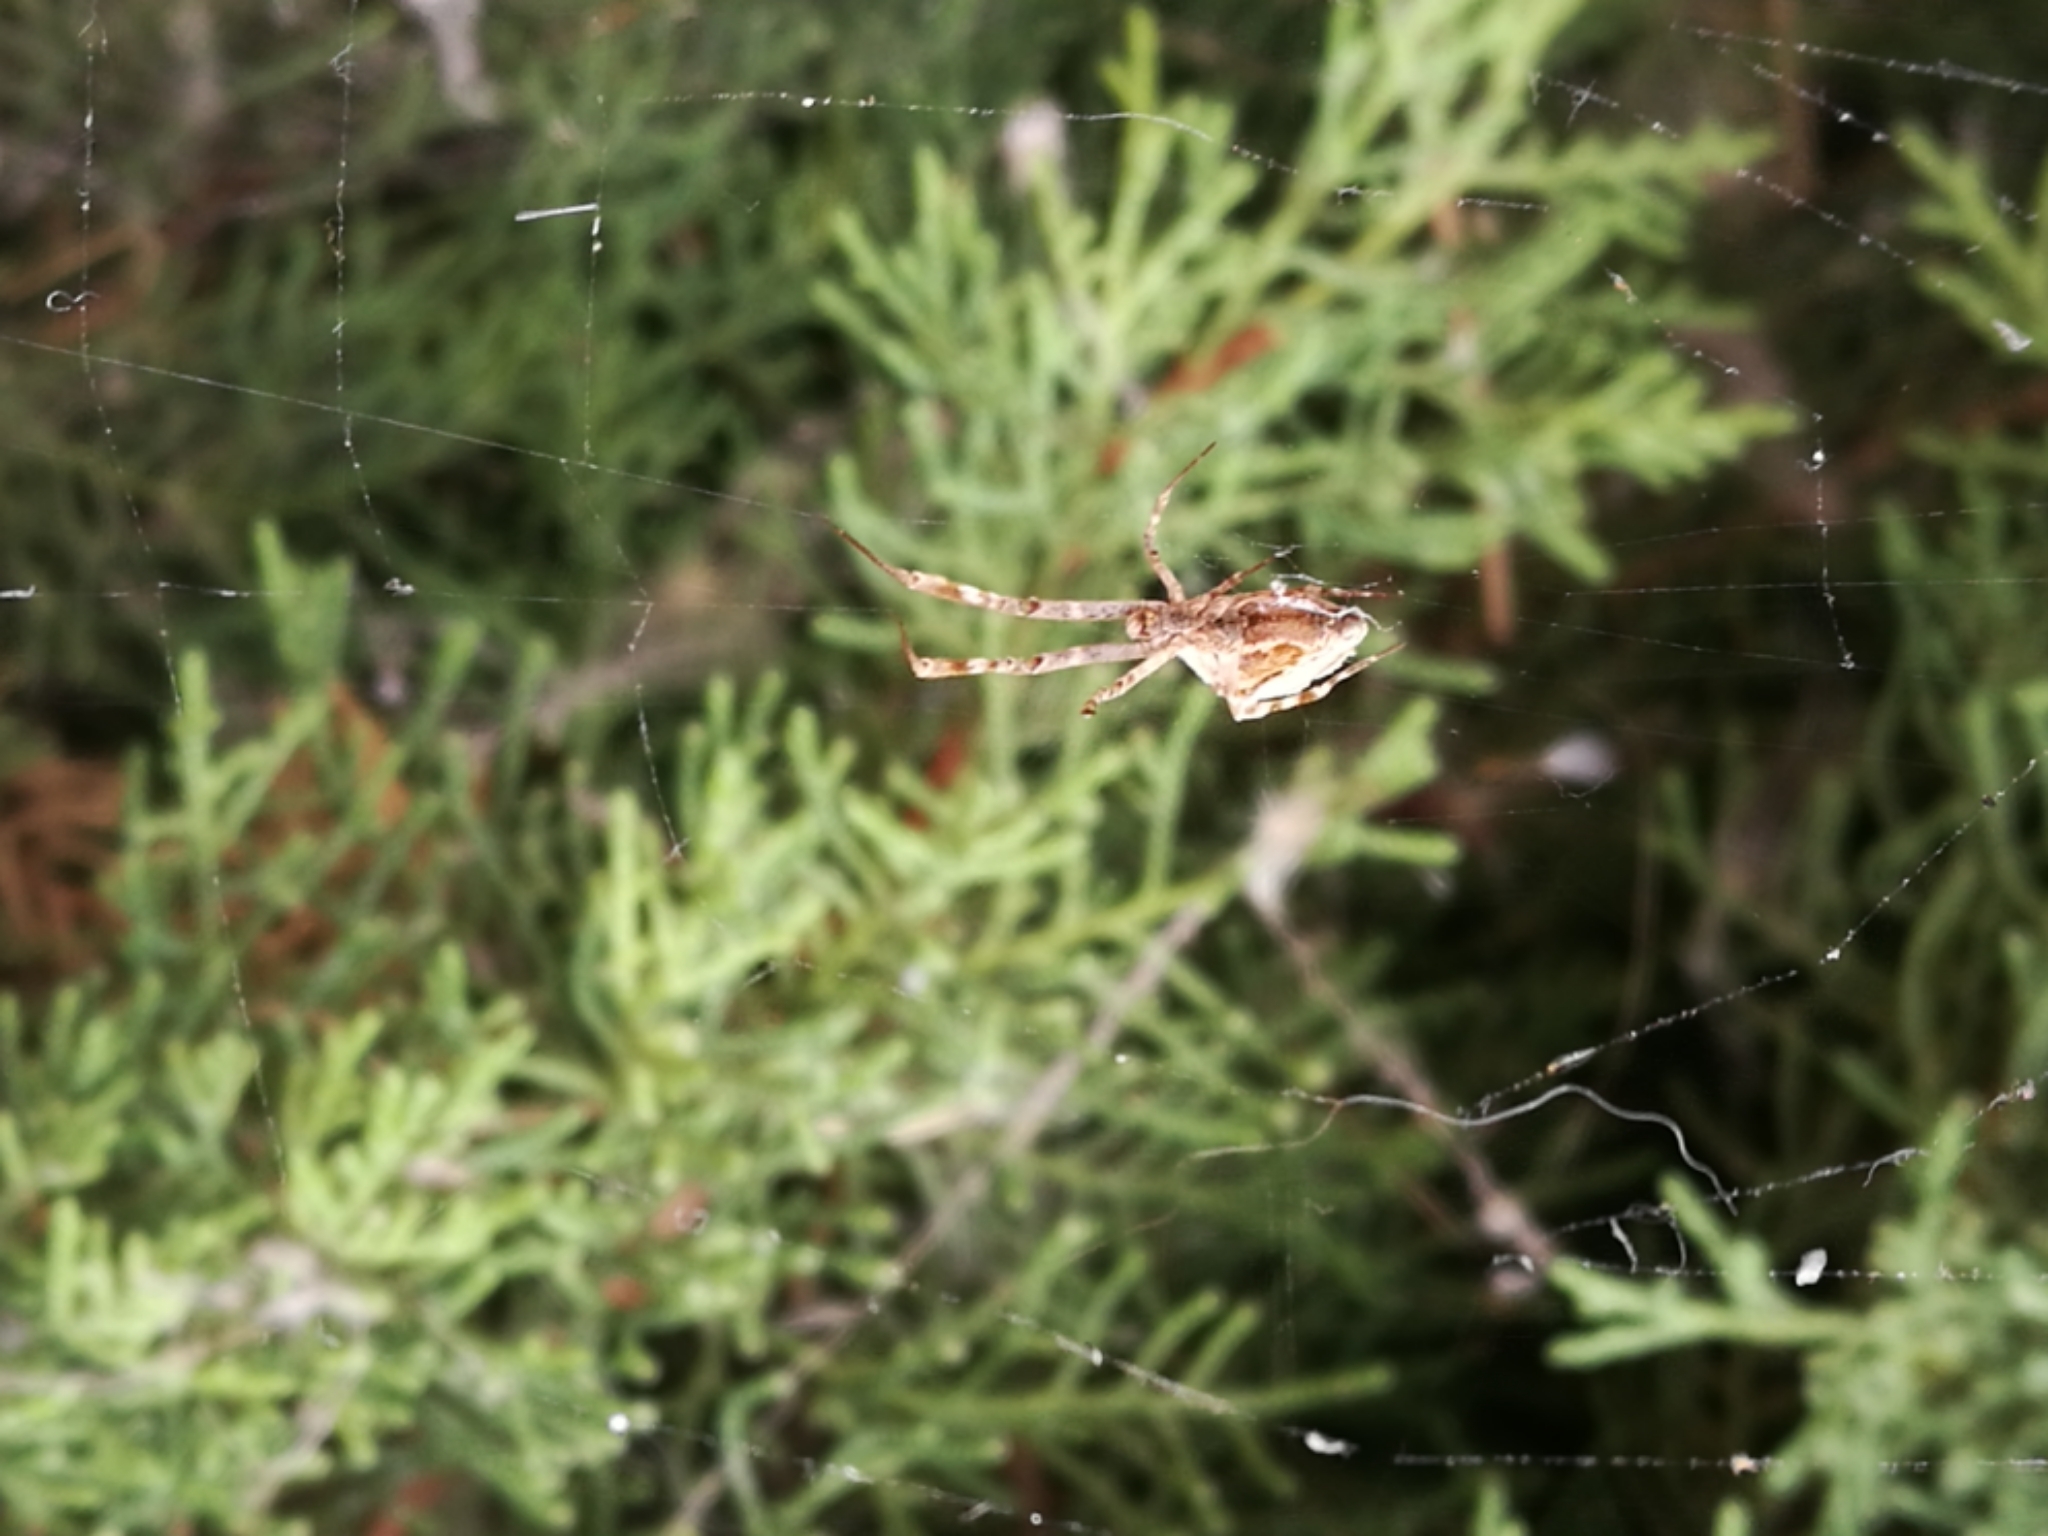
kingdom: Animalia
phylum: Arthropoda
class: Arachnida
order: Araneae
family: Uloboridae
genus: Uloborus
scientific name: Uloborus walckenaerius
